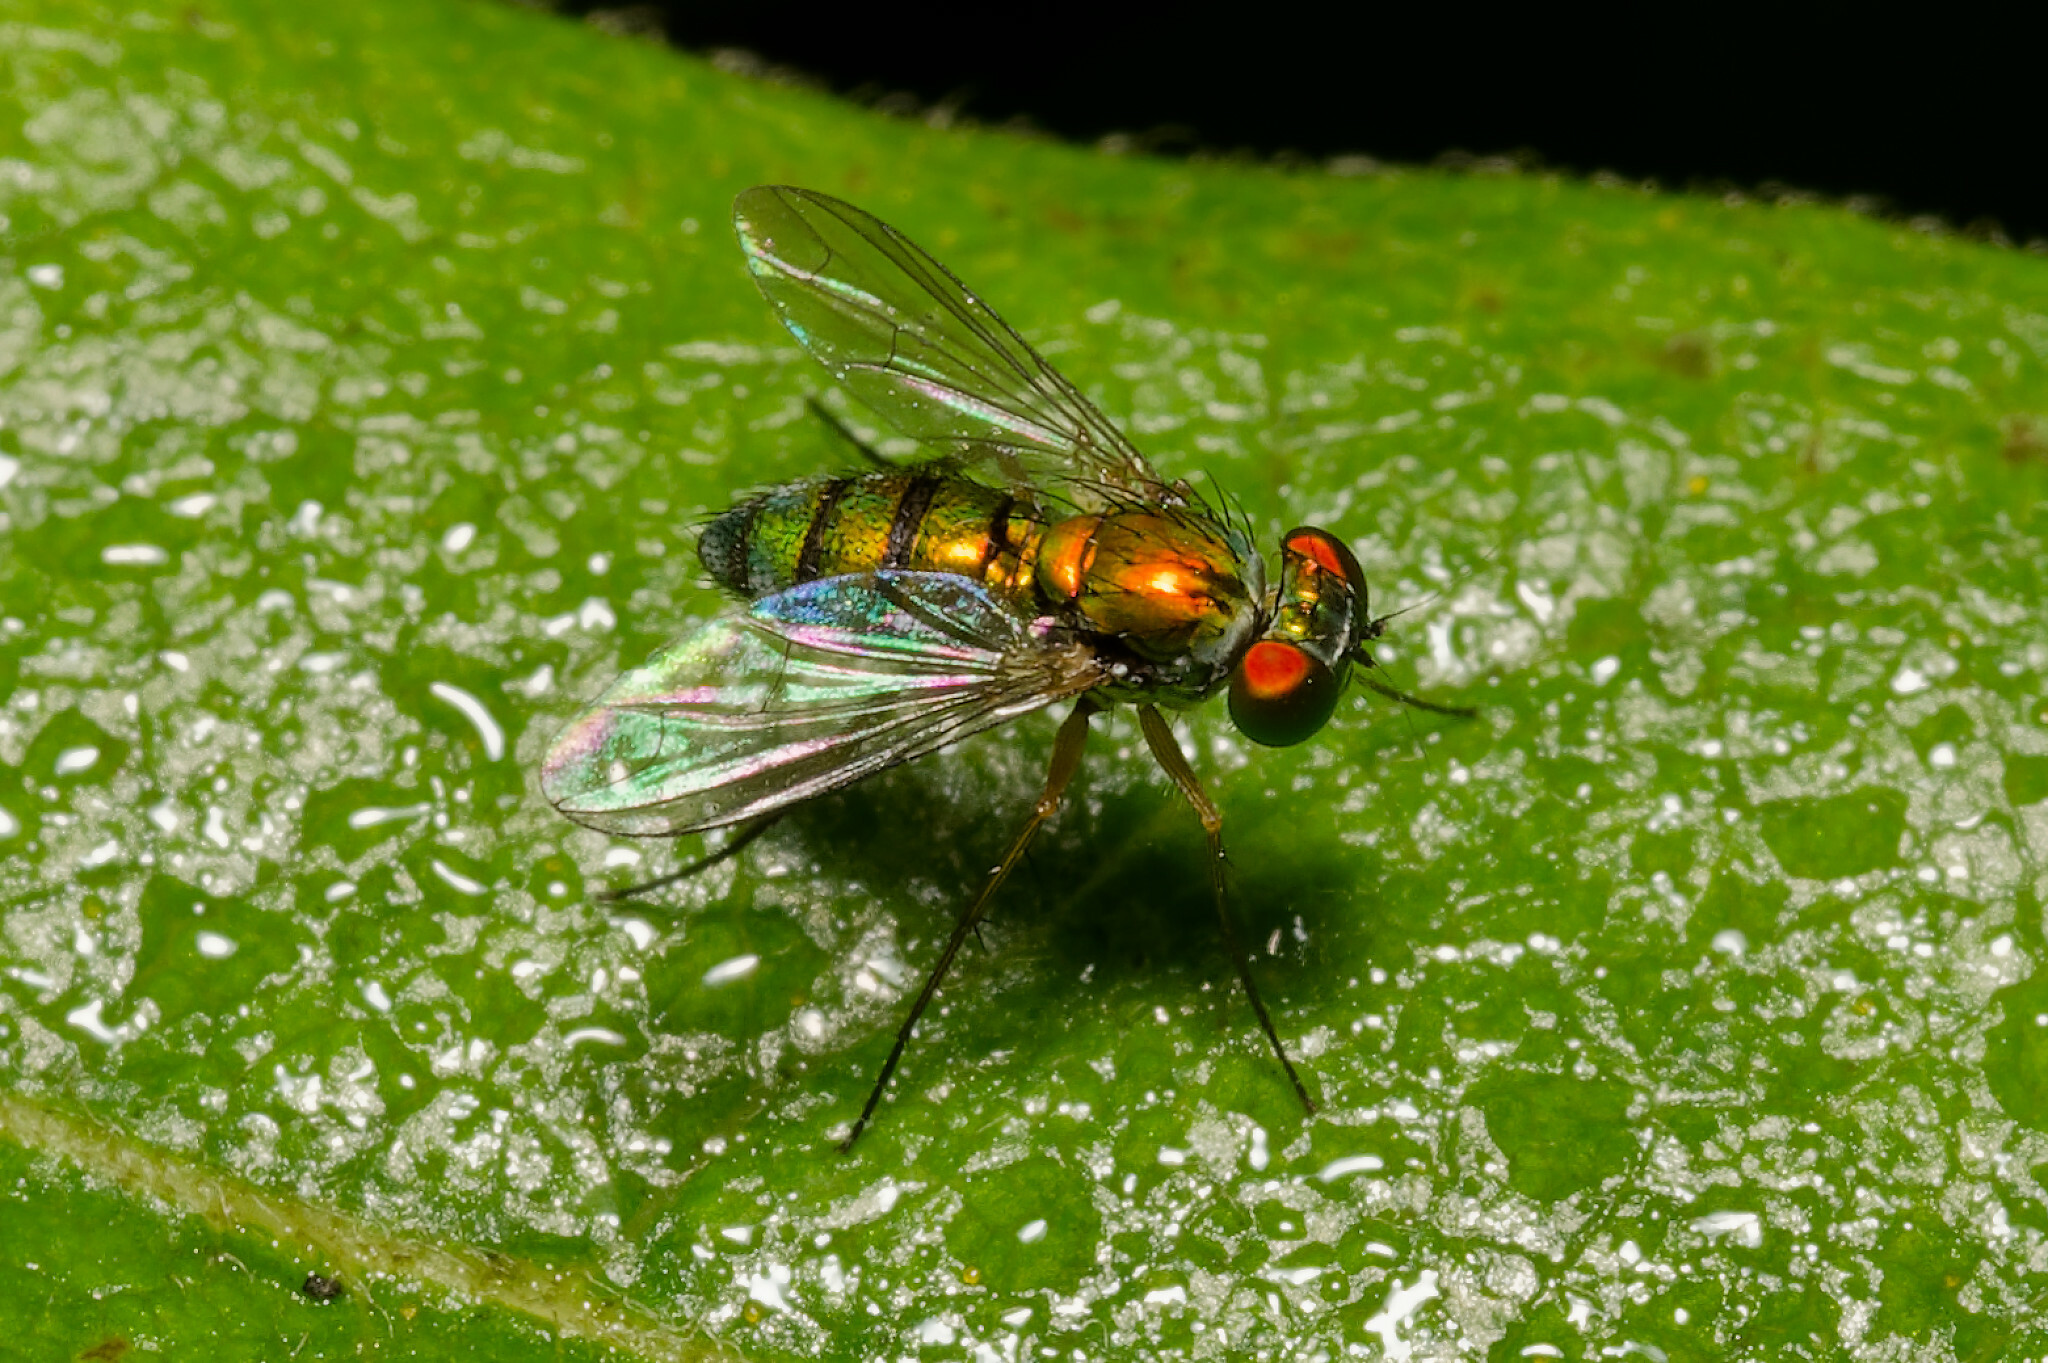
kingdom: Animalia
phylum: Arthropoda
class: Insecta
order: Diptera
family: Dolichopodidae
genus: Condylostylus
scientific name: Condylostylus
